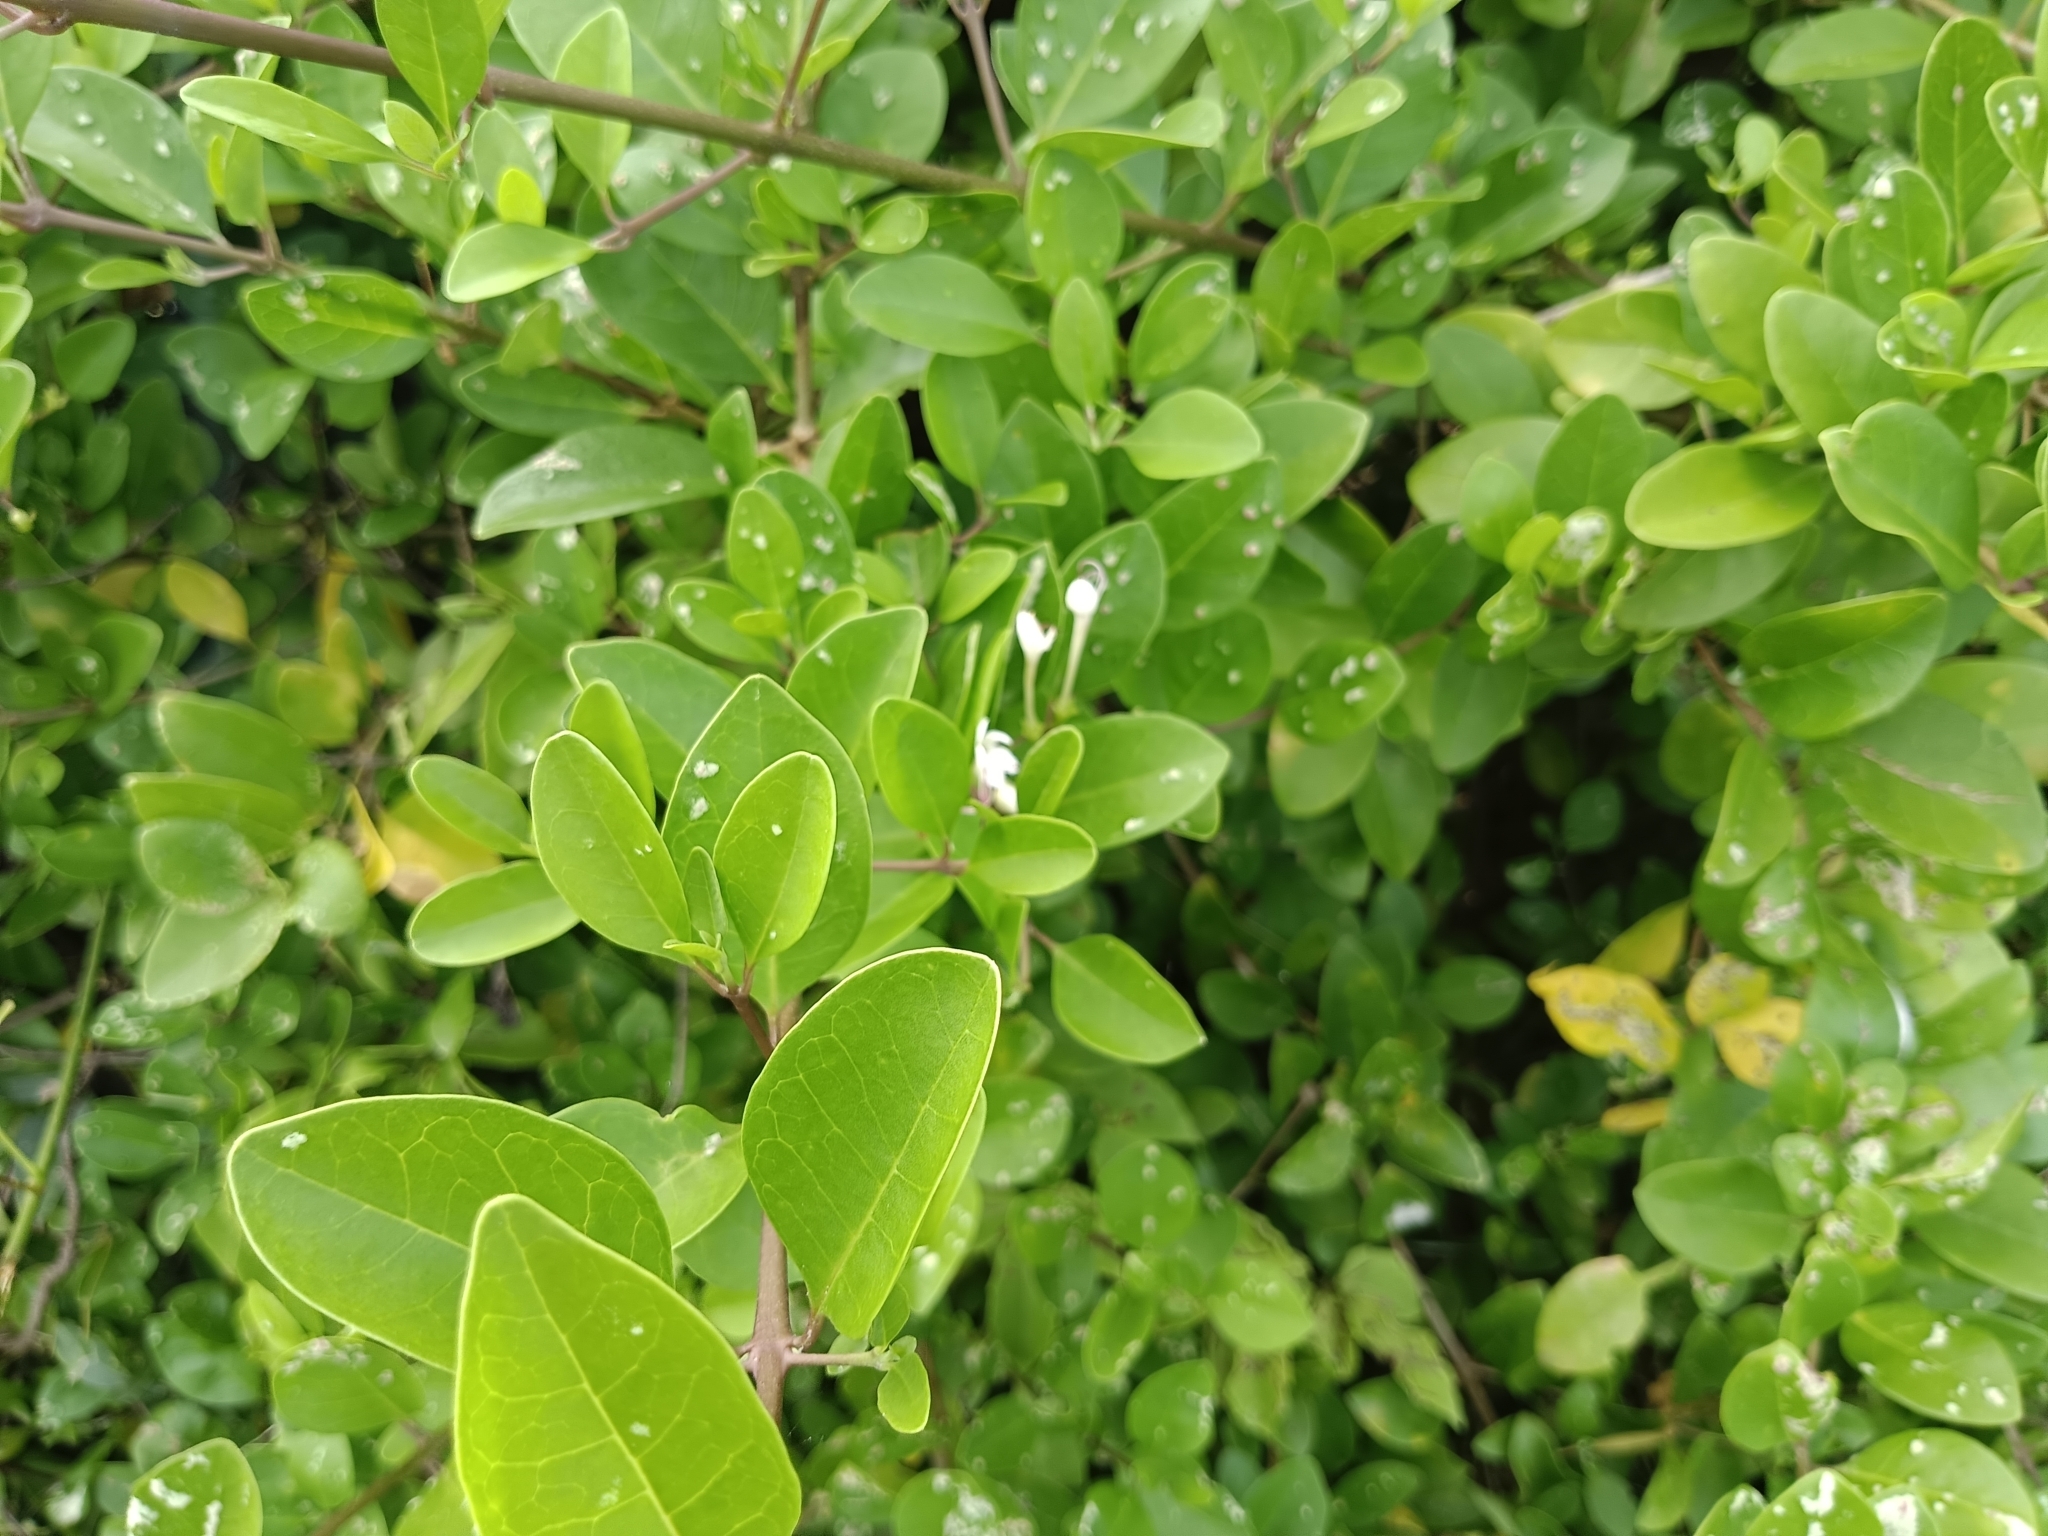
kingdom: Plantae
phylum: Tracheophyta
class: Magnoliopsida
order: Lamiales
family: Lamiaceae
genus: Volkameria
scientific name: Volkameria inermis
